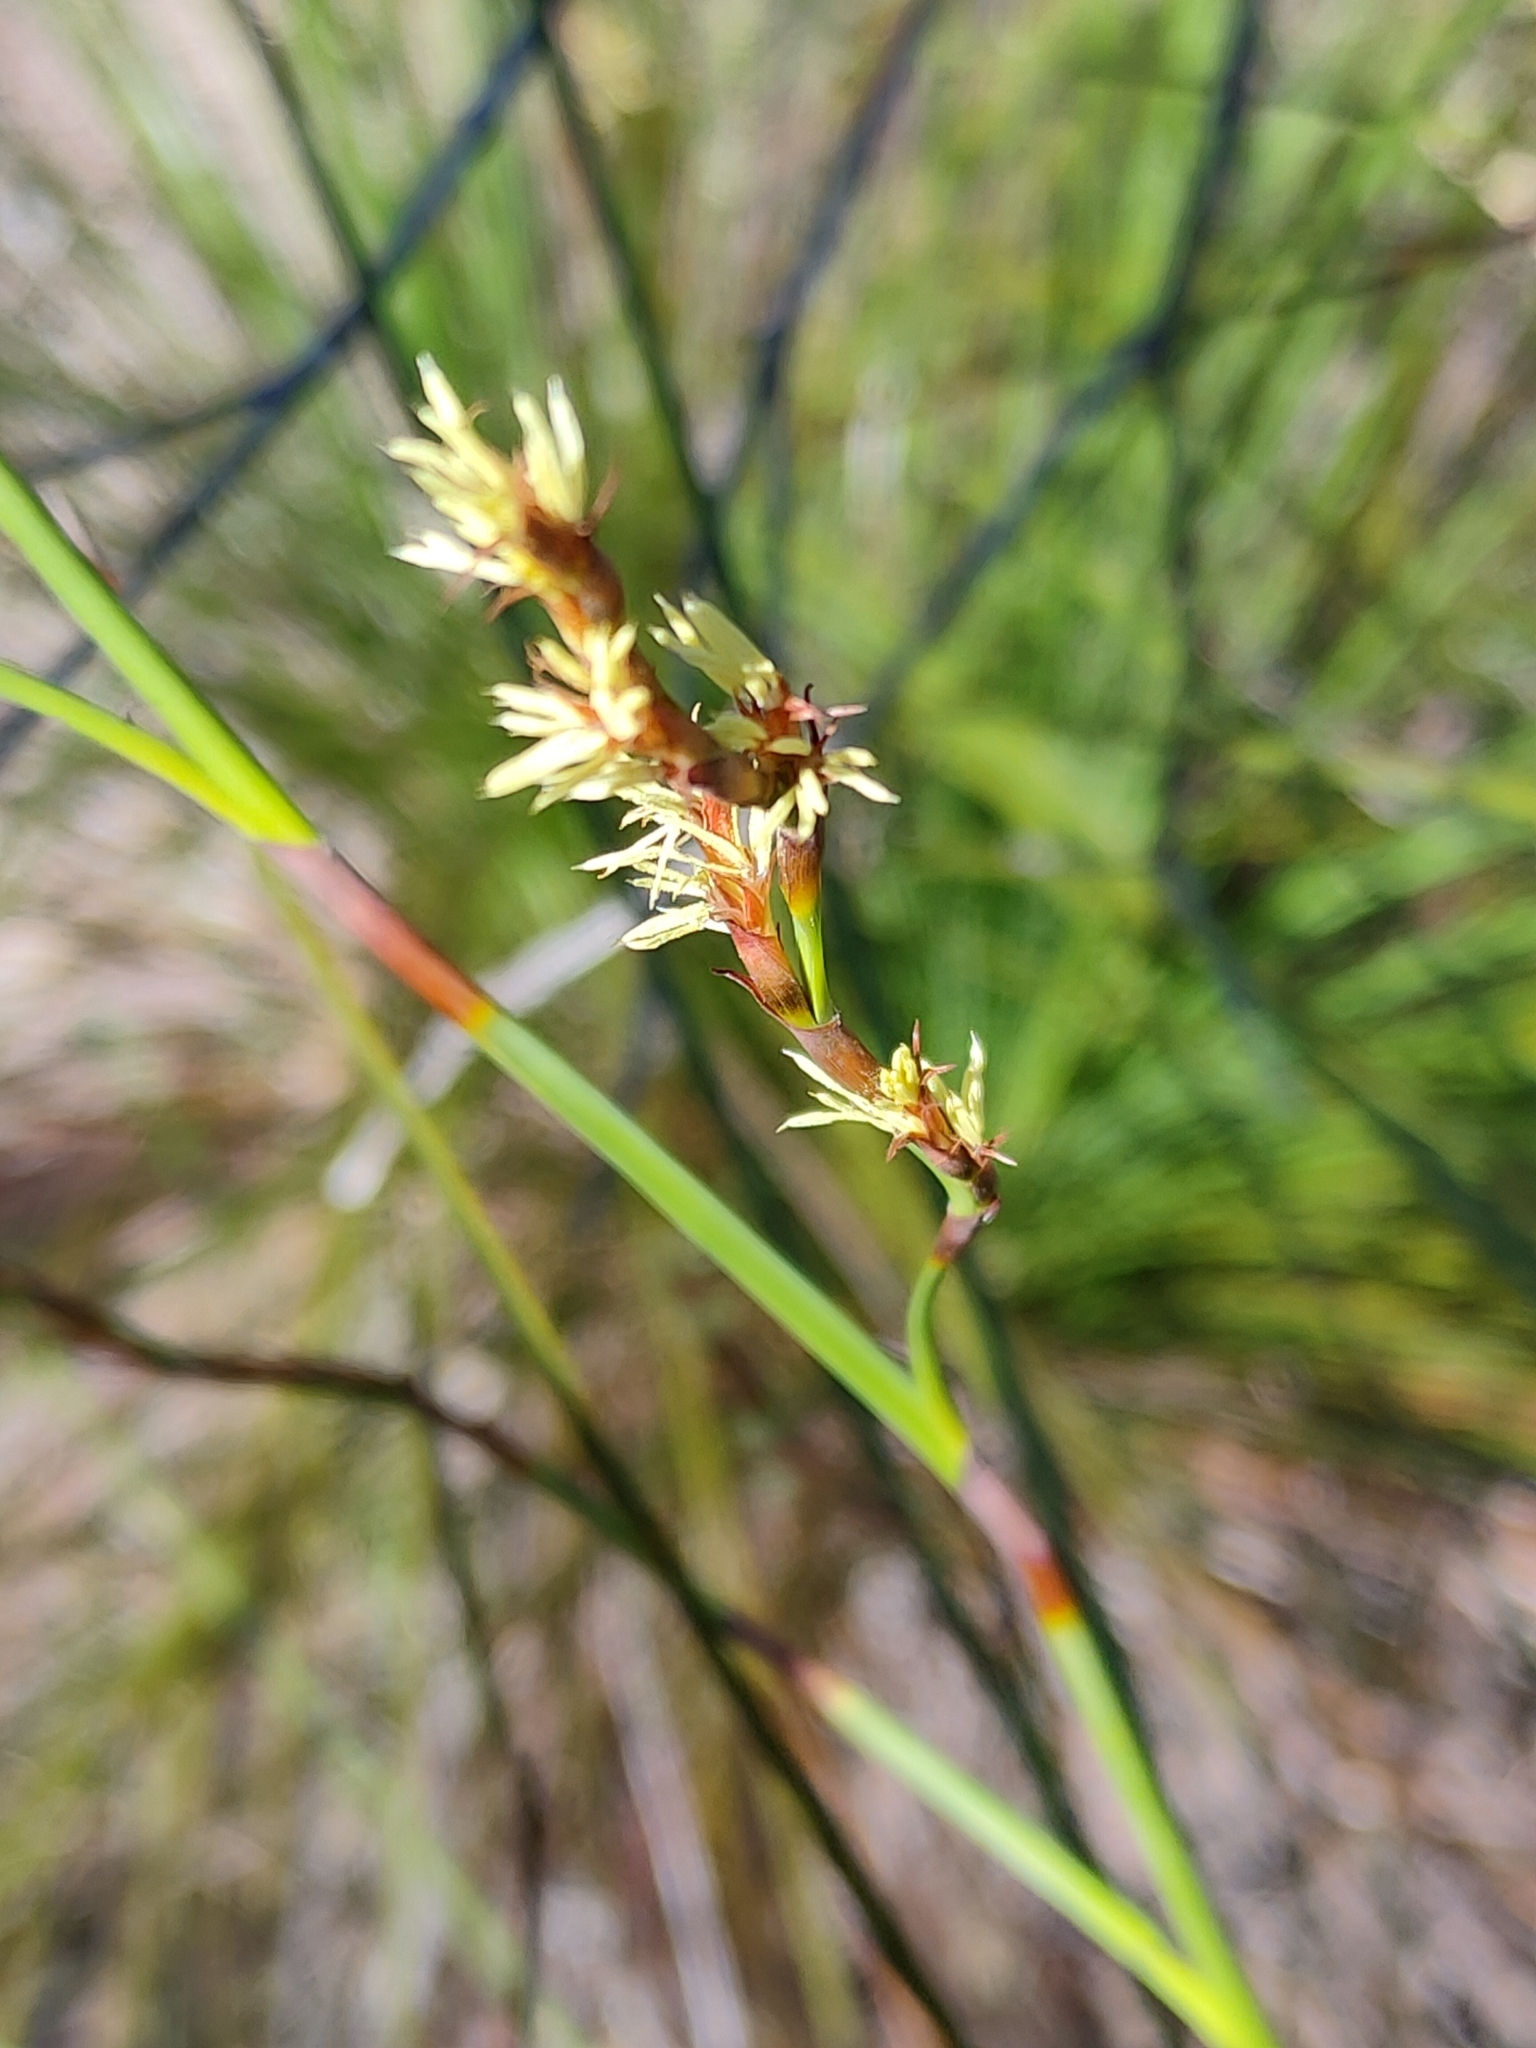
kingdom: Plantae
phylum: Tracheophyta
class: Liliopsida
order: Poales
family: Cyperaceae
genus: Caustis
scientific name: Caustis recurvata
